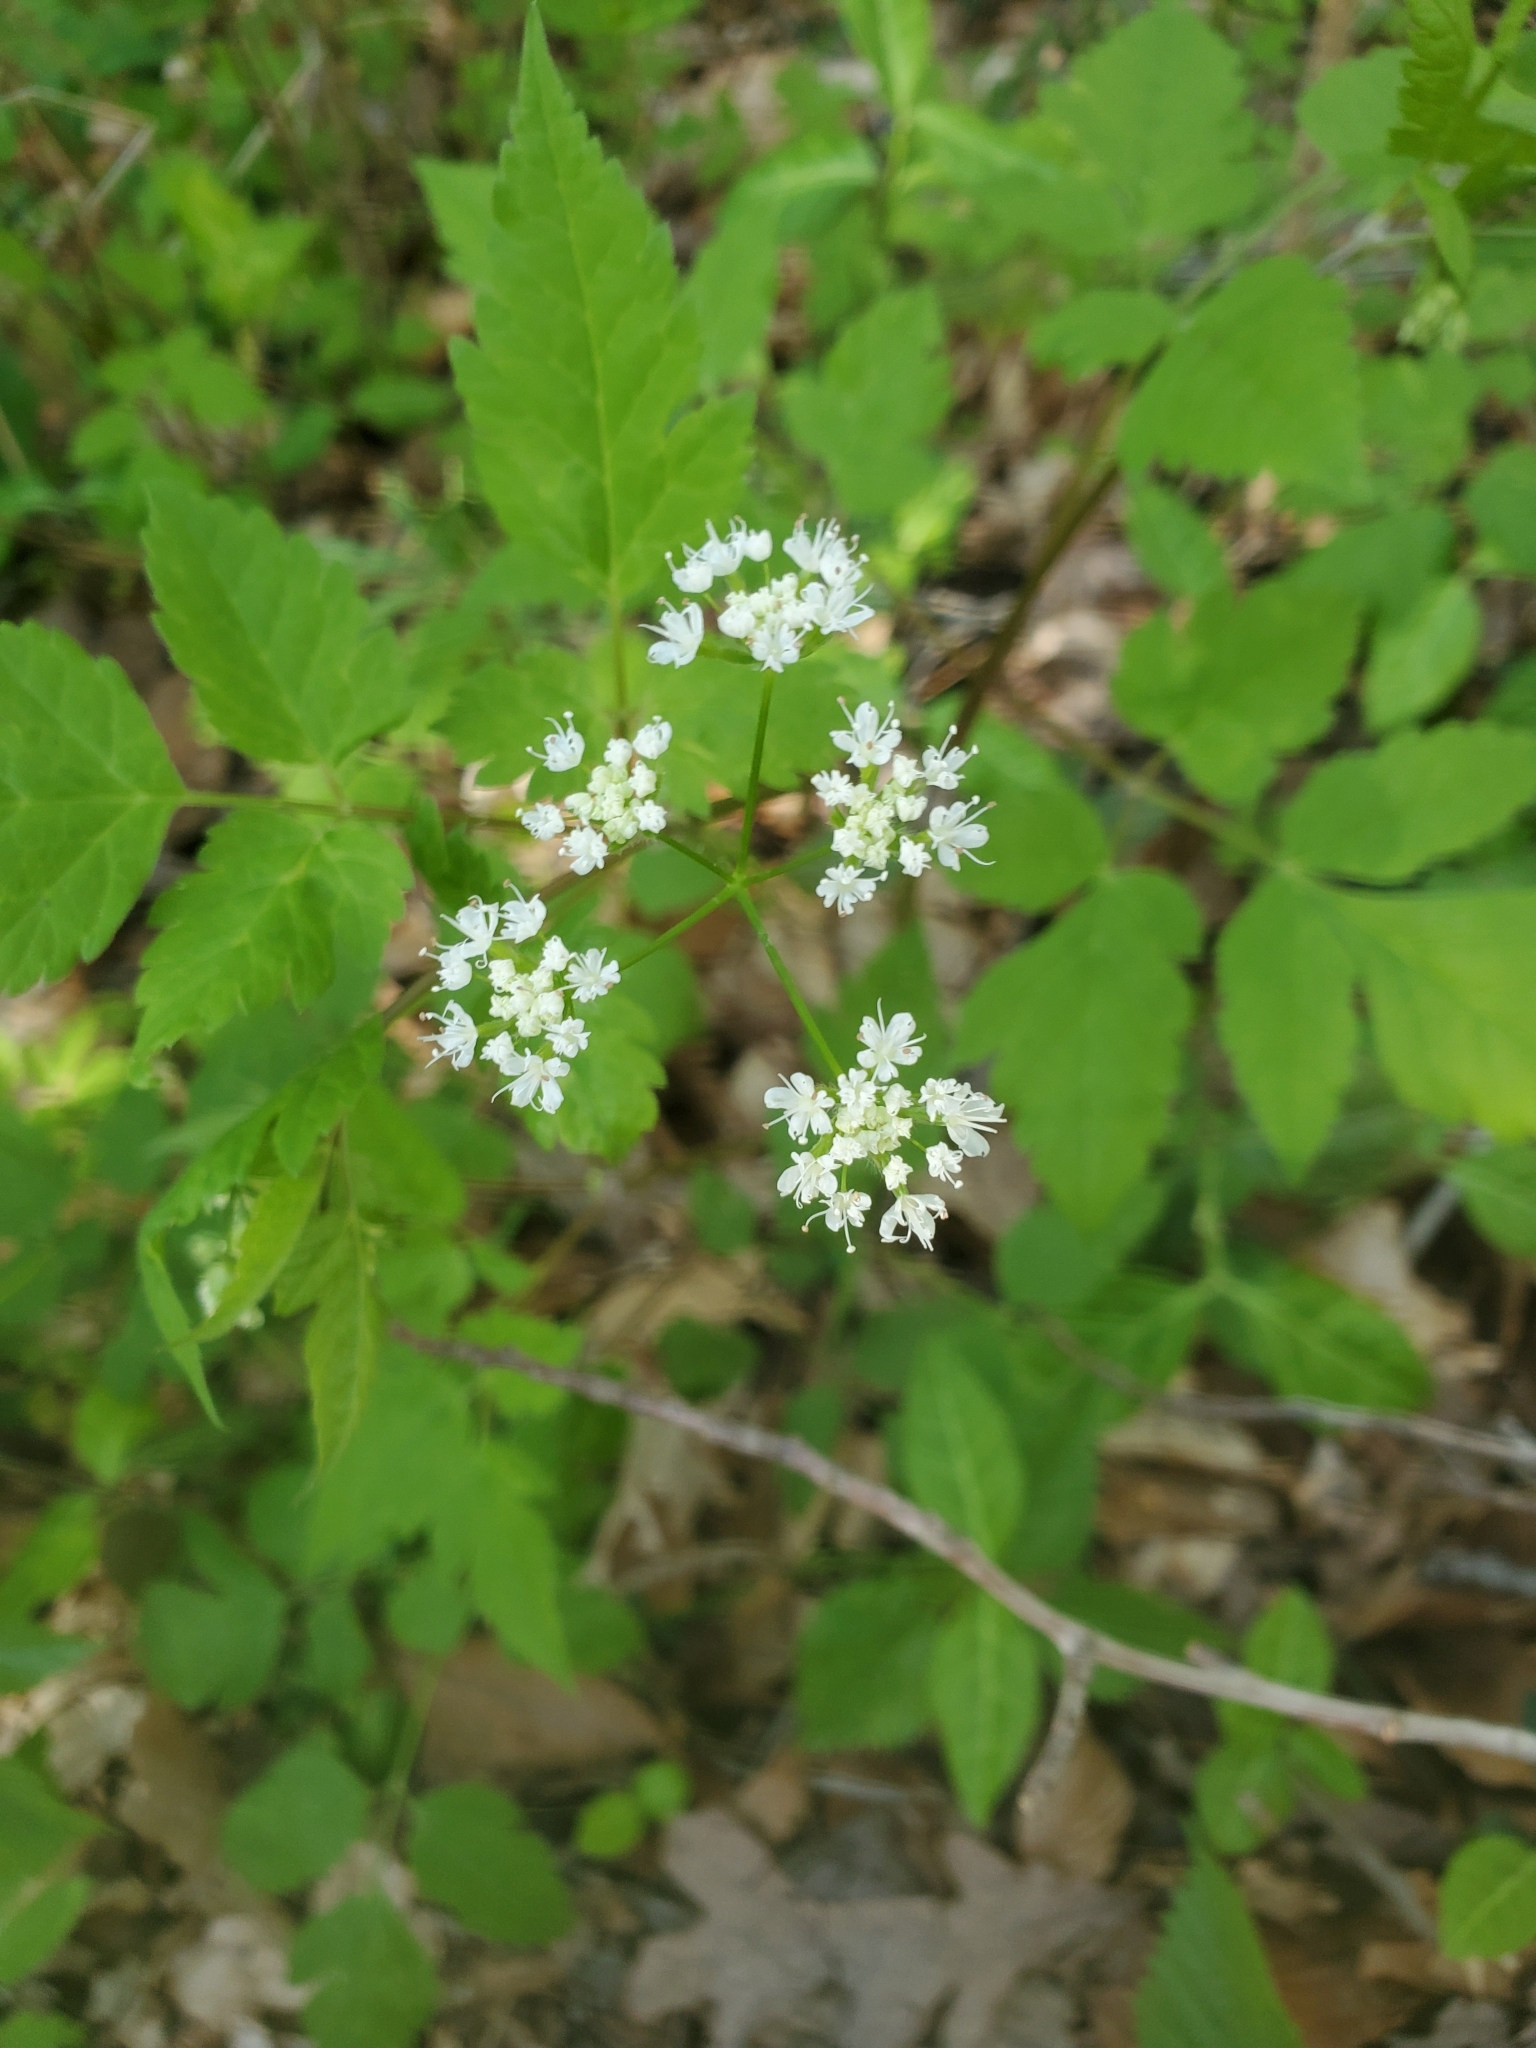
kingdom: Plantae
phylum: Tracheophyta
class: Magnoliopsida
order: Apiales
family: Apiaceae
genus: Osmorhiza
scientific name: Osmorhiza longistylis
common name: Smooth sweet cicely
